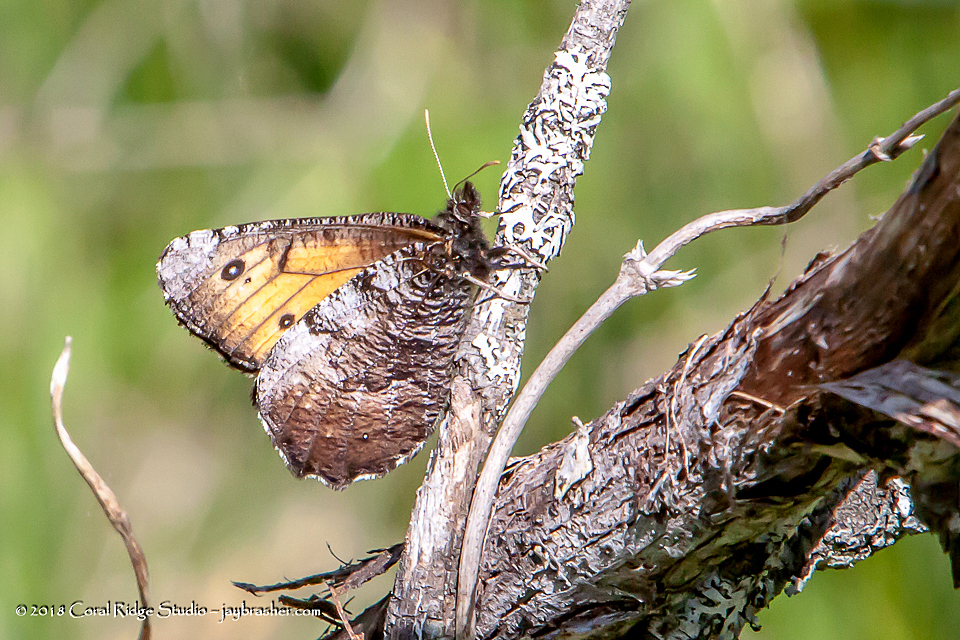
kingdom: Animalia
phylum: Arthropoda
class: Insecta
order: Lepidoptera
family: Nymphalidae
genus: Oeneis
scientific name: Oeneis macounii
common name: Macoun's arctic
